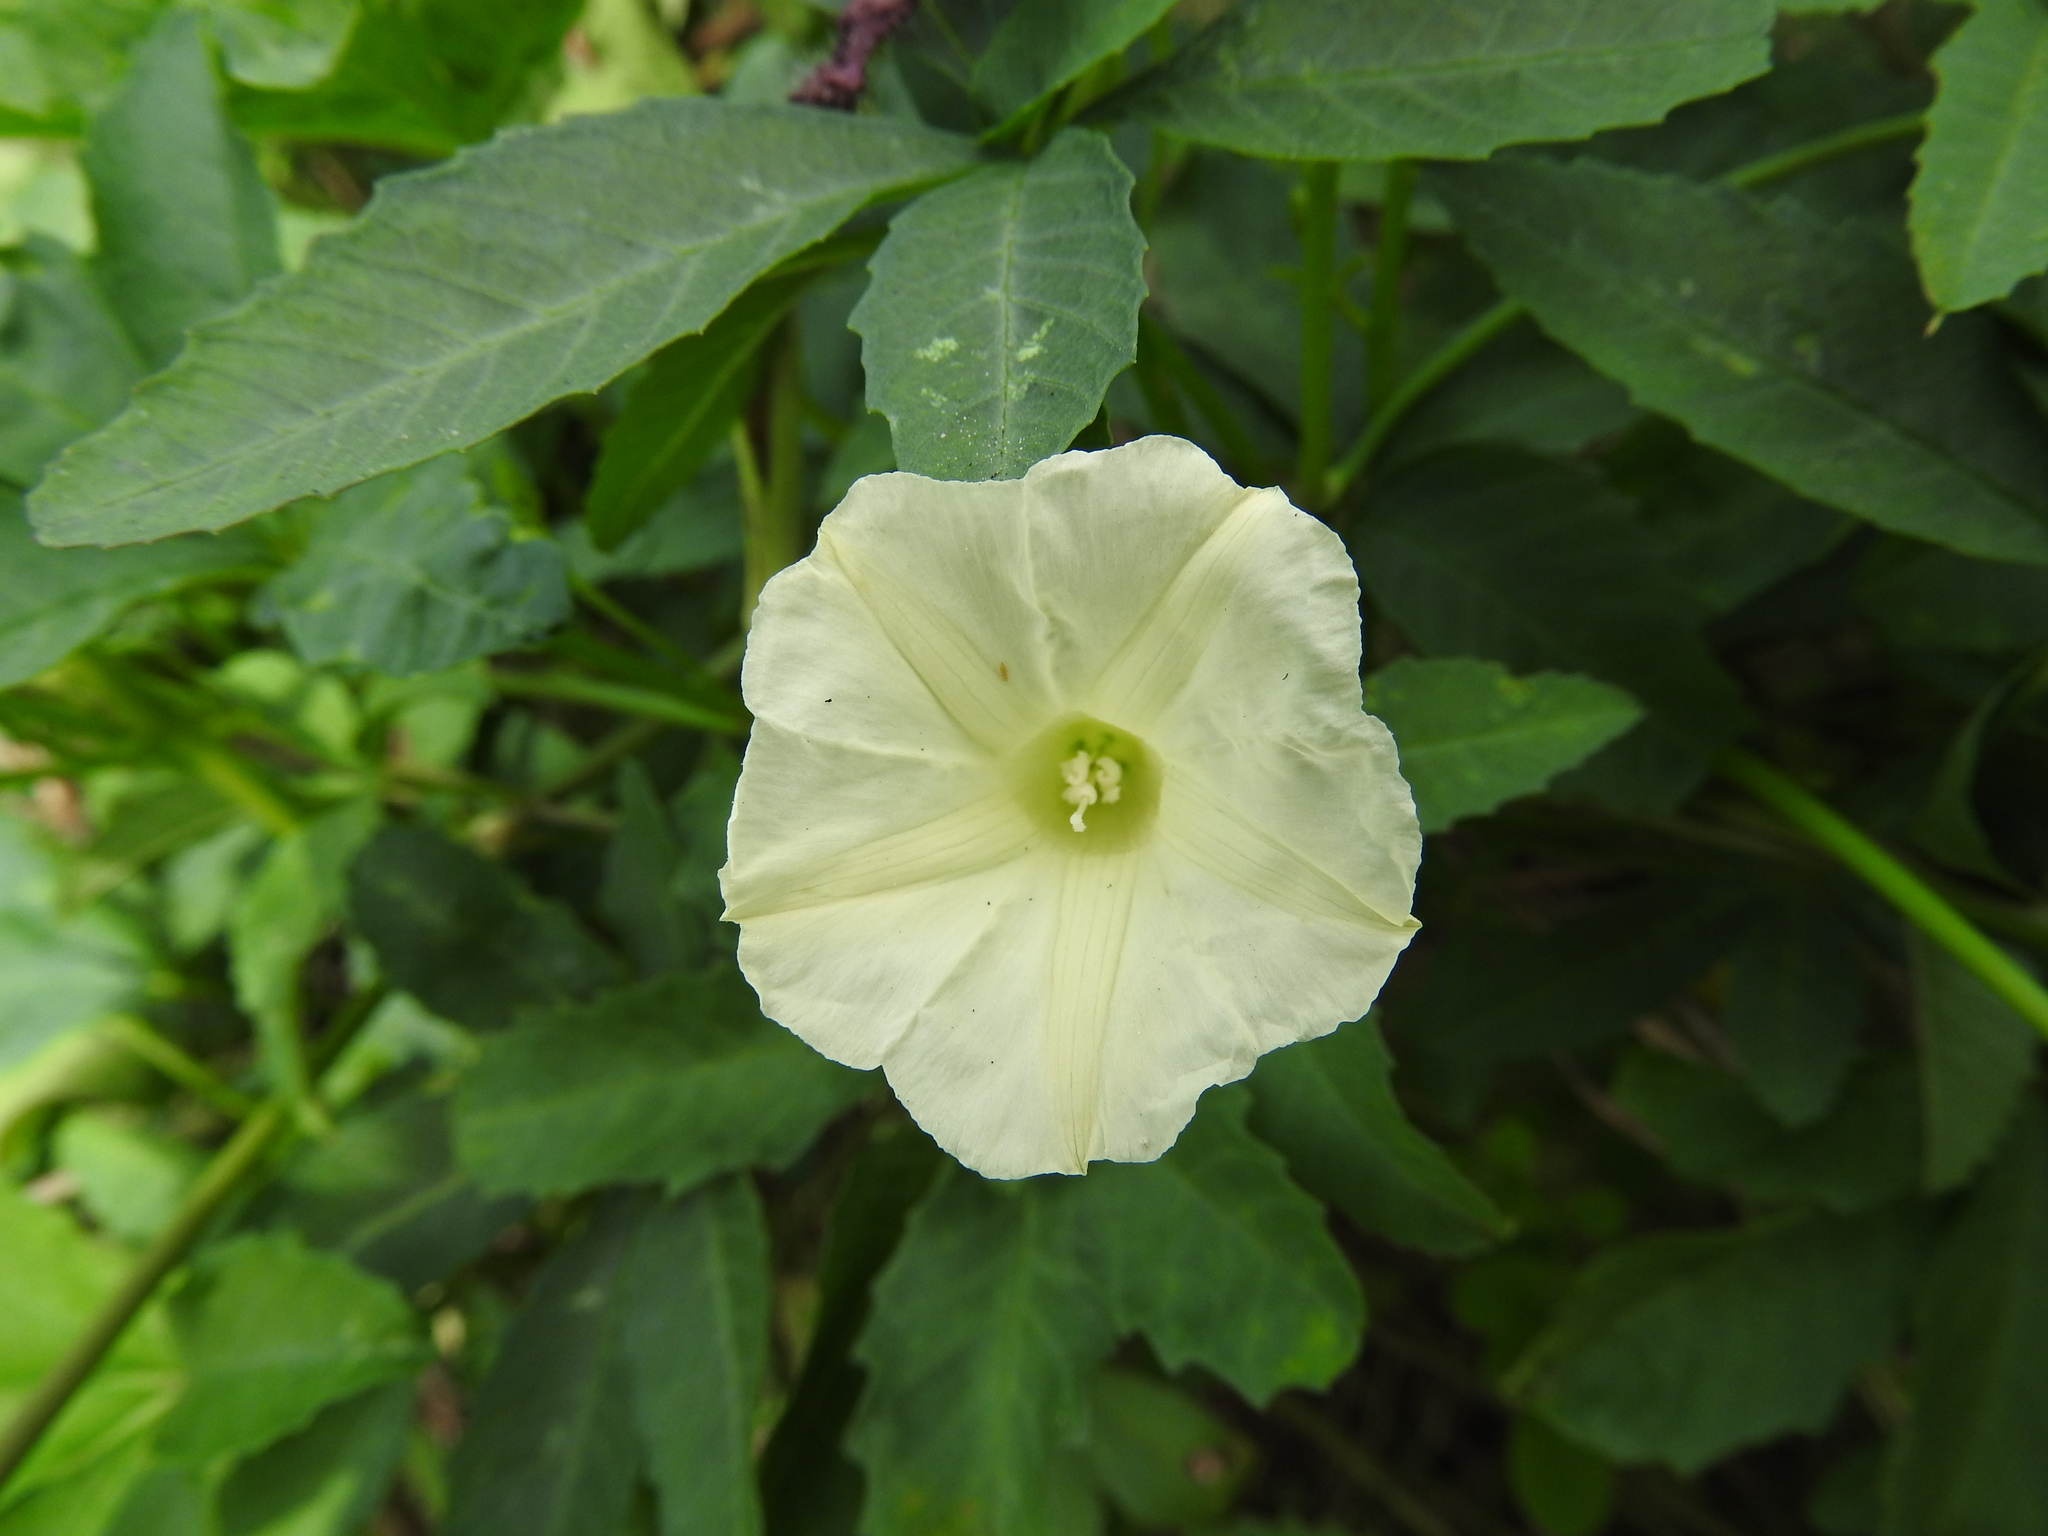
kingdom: Plantae
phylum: Tracheophyta
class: Magnoliopsida
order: Solanales
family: Convolvulaceae
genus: Distimake
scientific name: Distimake quinquefolius
